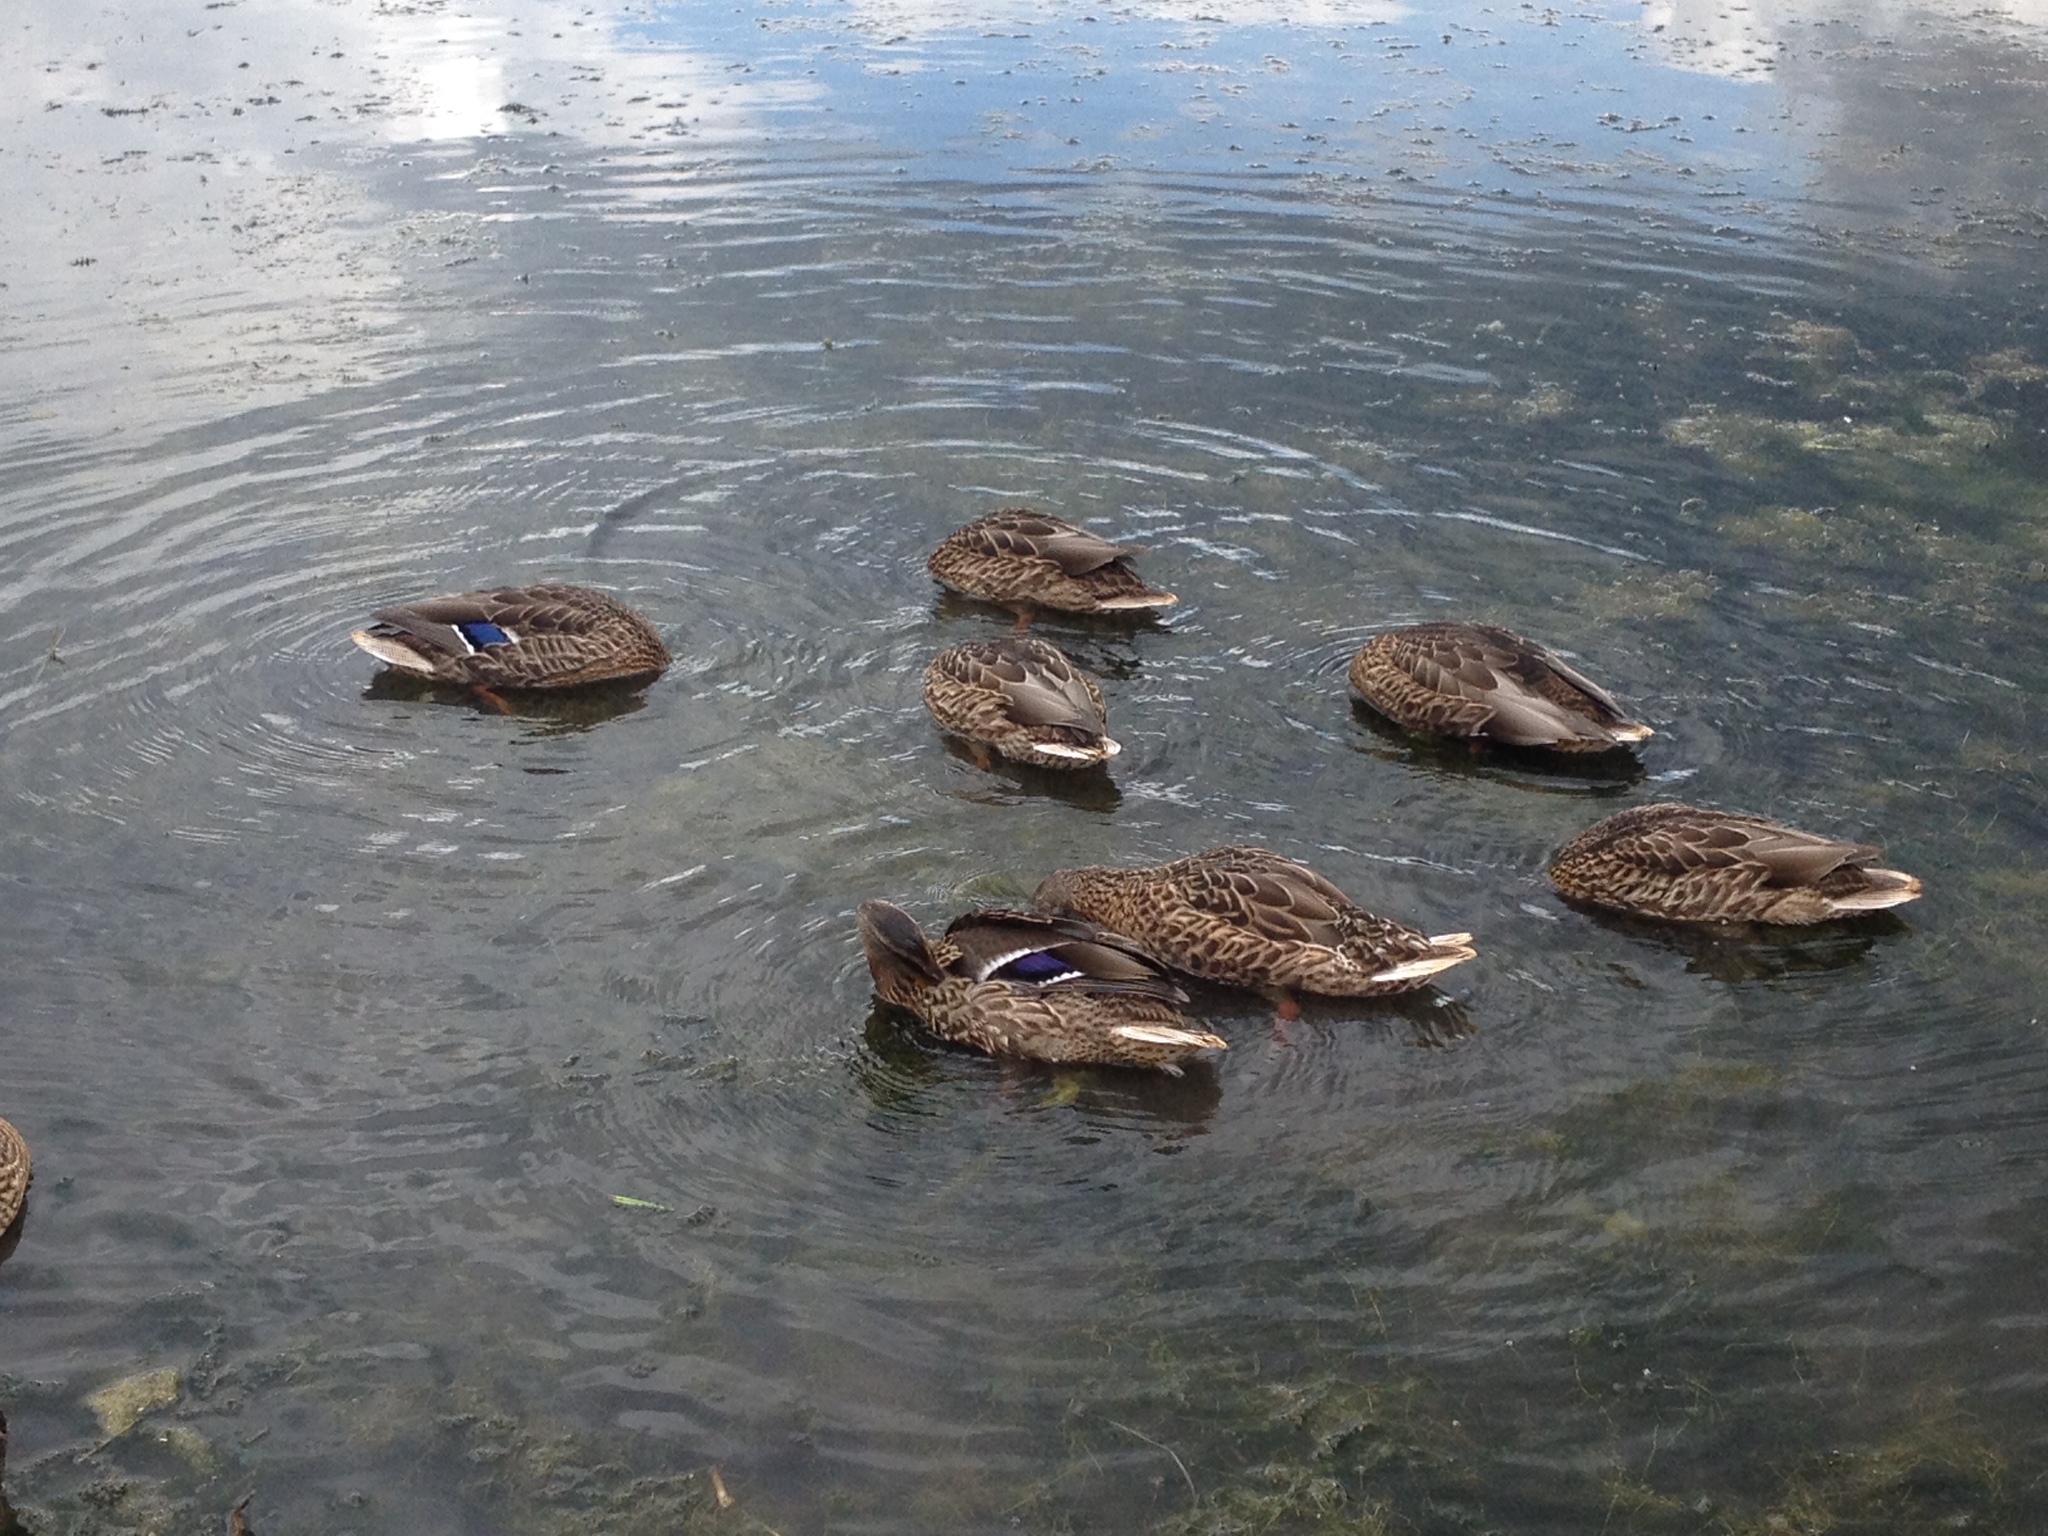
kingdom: Animalia
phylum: Chordata
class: Aves
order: Anseriformes
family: Anatidae
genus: Anas
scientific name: Anas platyrhynchos
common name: Mallard
